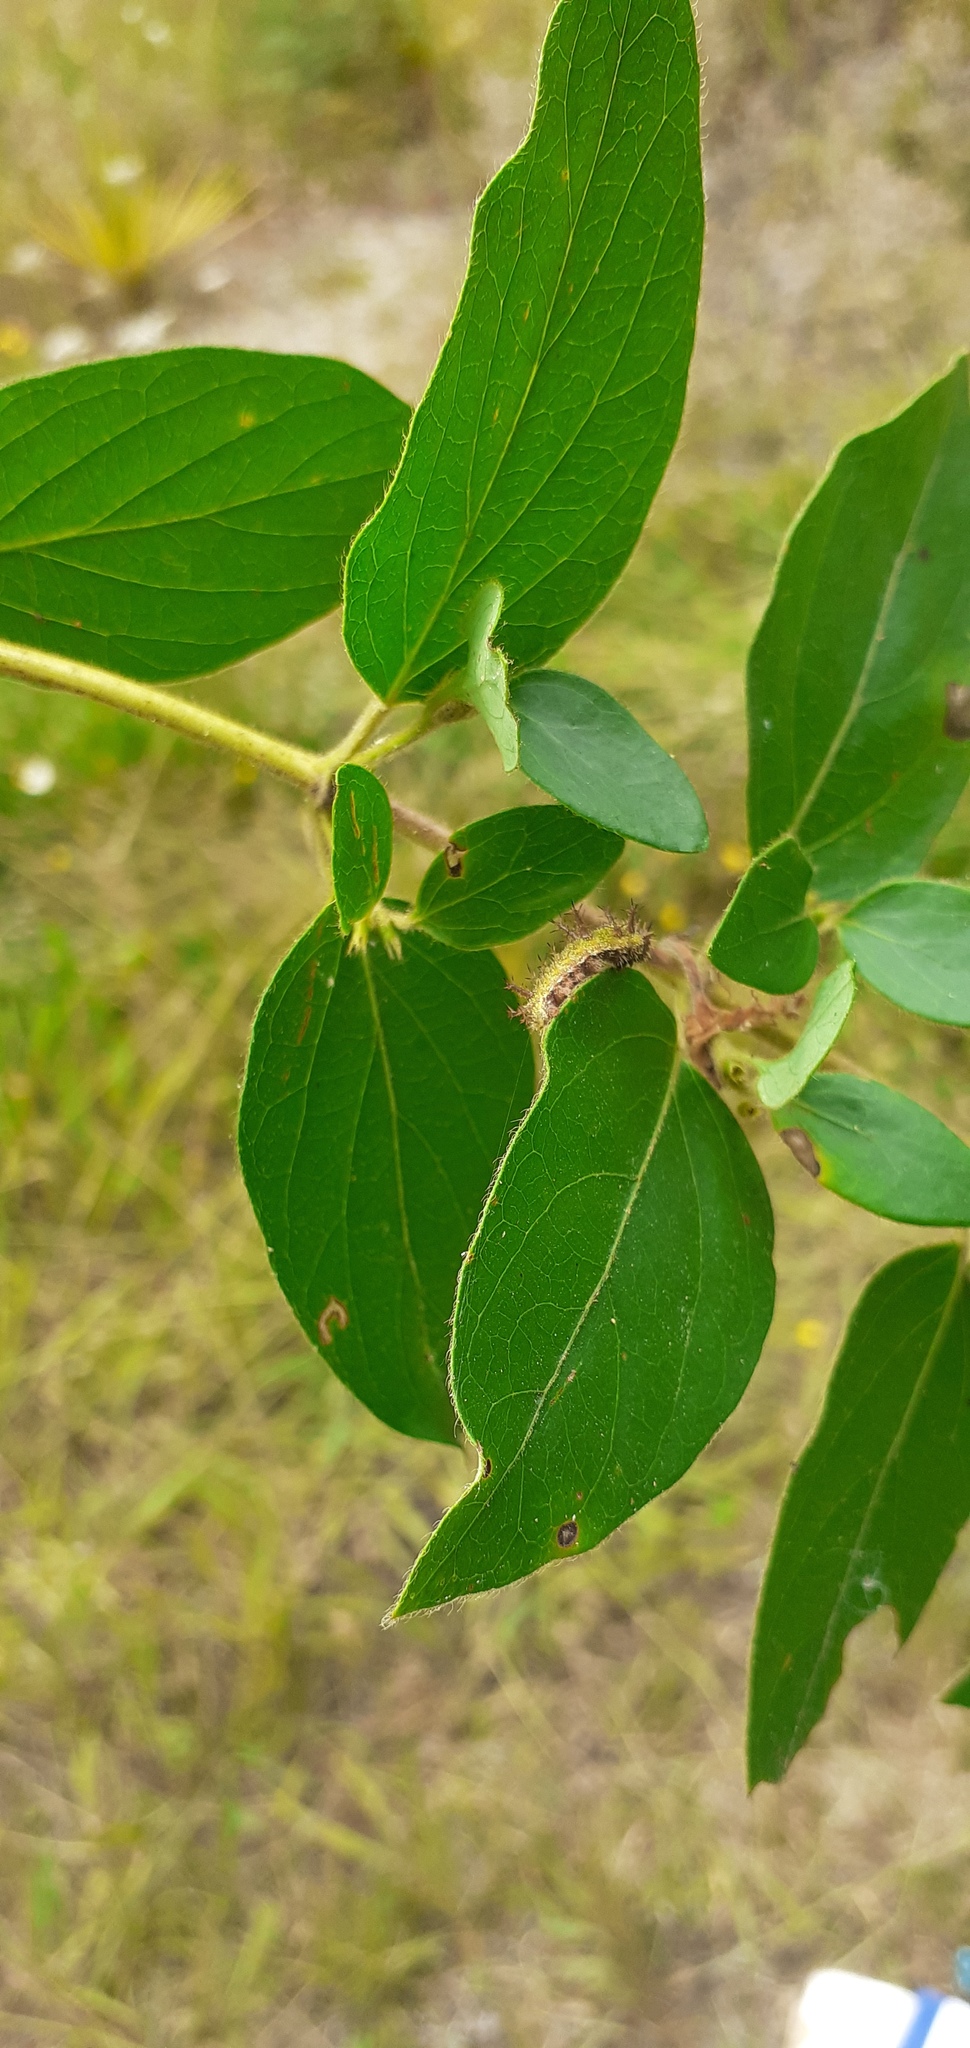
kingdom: Animalia
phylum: Arthropoda
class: Insecta
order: Lepidoptera
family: Nymphalidae
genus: Ladoga
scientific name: Ladoga camilla
